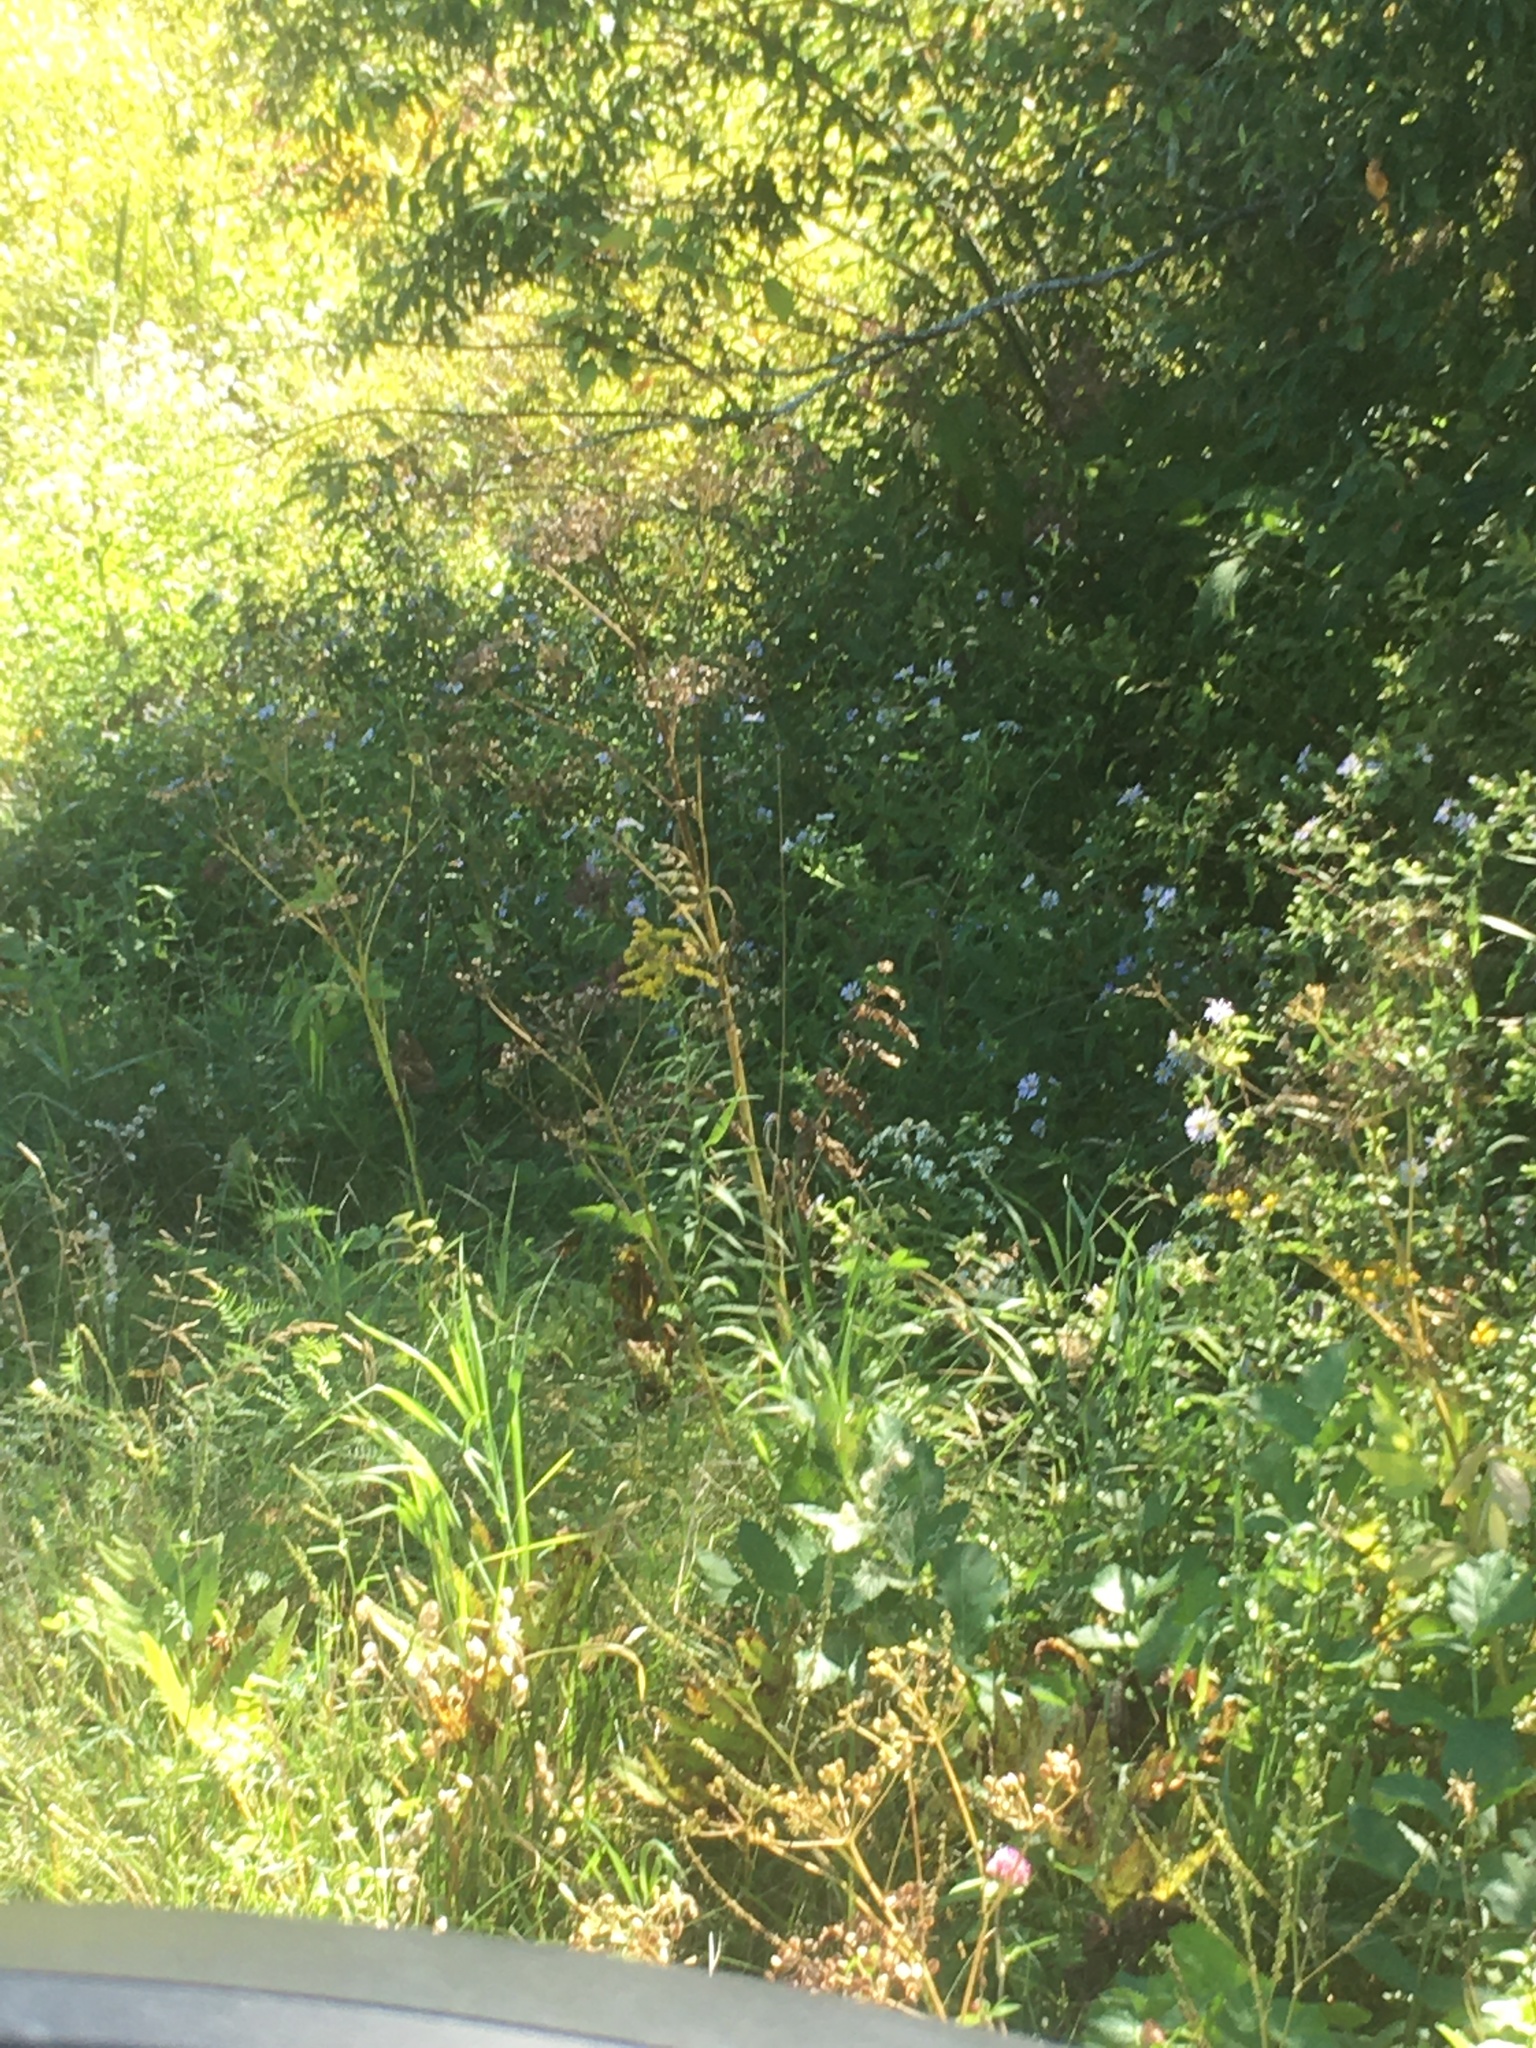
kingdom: Plantae
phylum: Tracheophyta
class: Magnoliopsida
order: Apiales
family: Apiaceae
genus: Pastinaca
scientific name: Pastinaca sativa
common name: Wild parsnip
